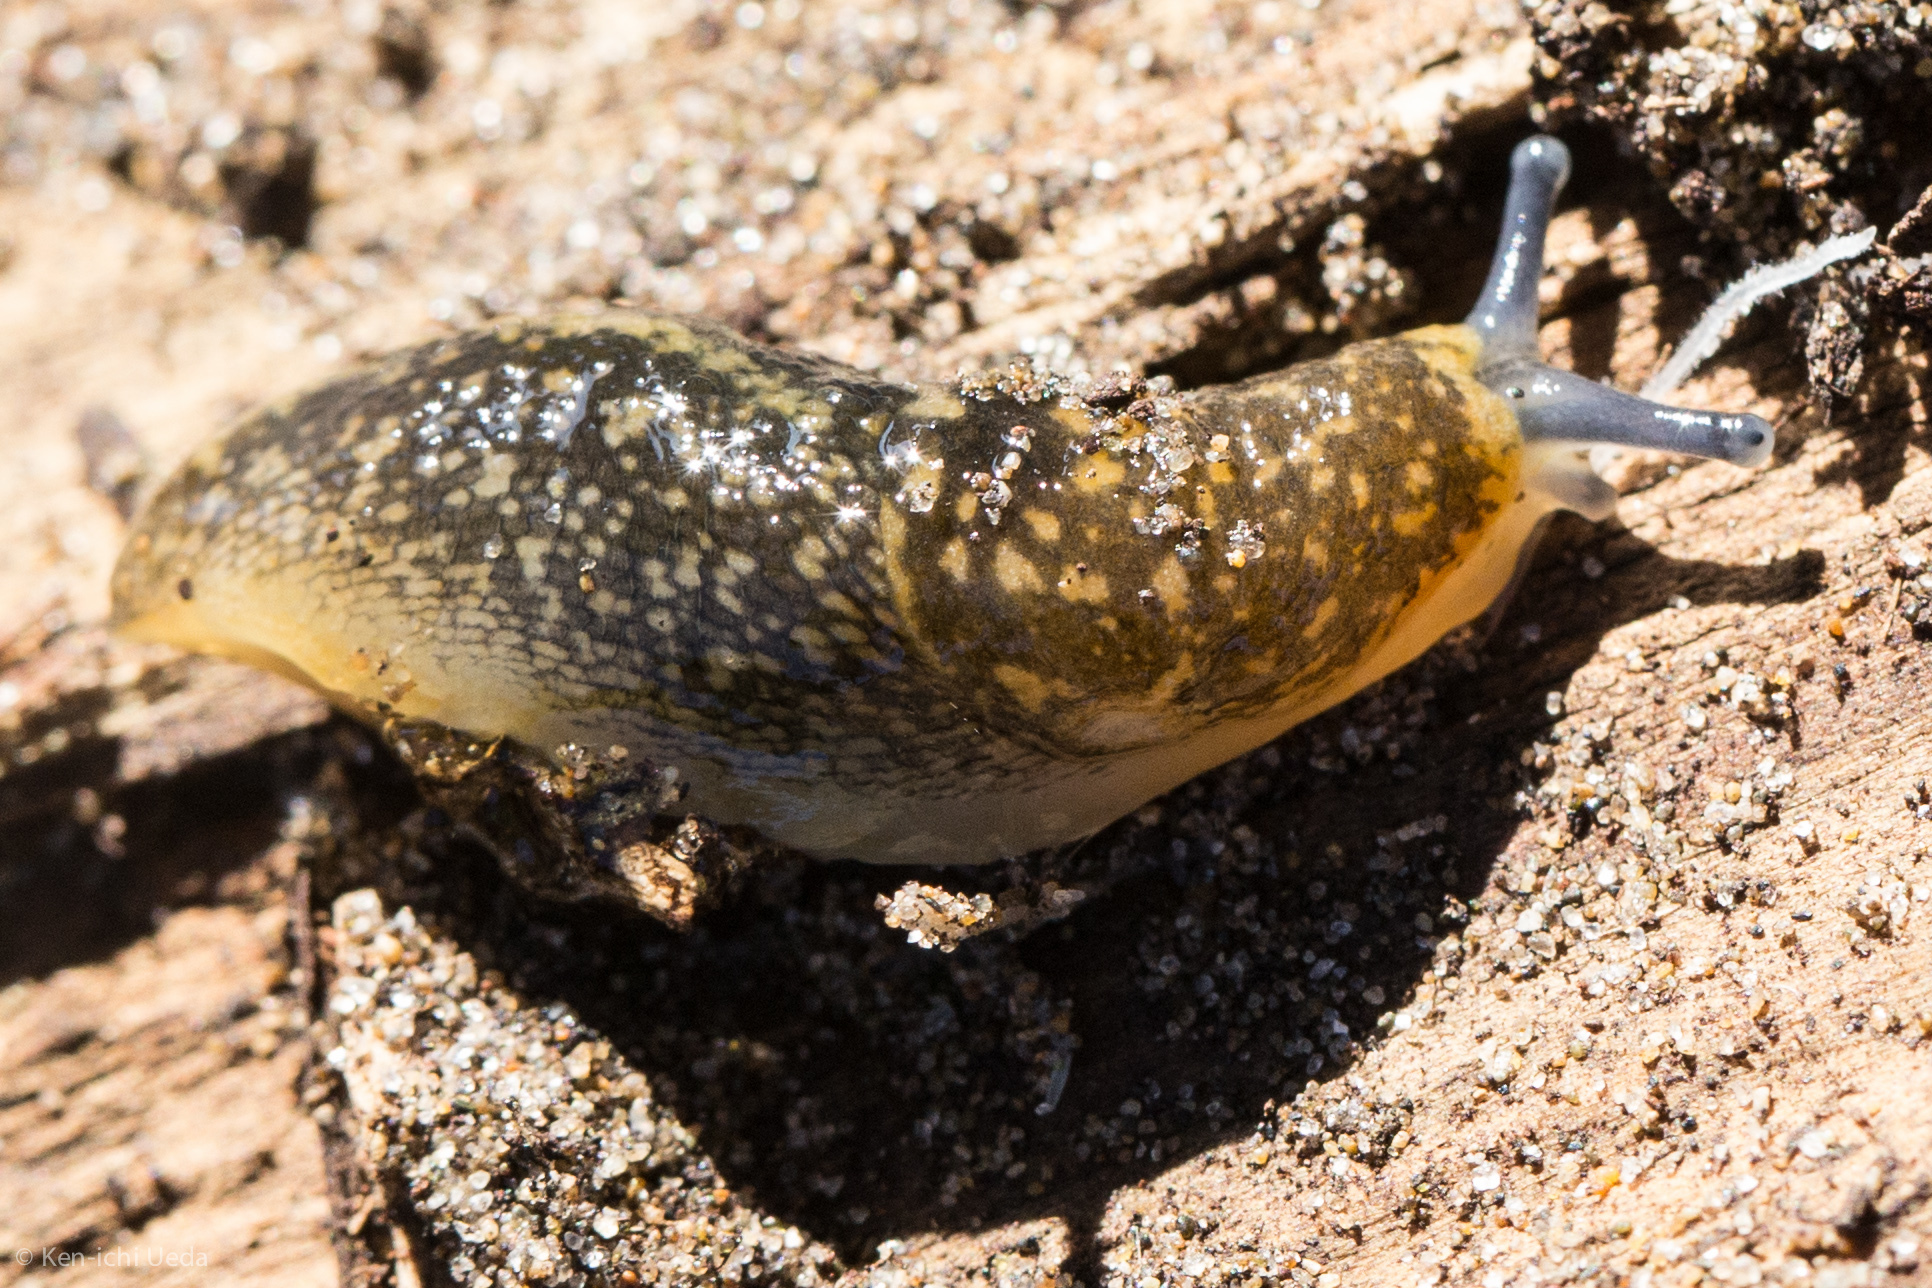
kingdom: Animalia
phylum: Mollusca
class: Gastropoda
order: Stylommatophora
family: Limacidae
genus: Limacus
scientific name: Limacus flavus
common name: Yellow gardenslug
